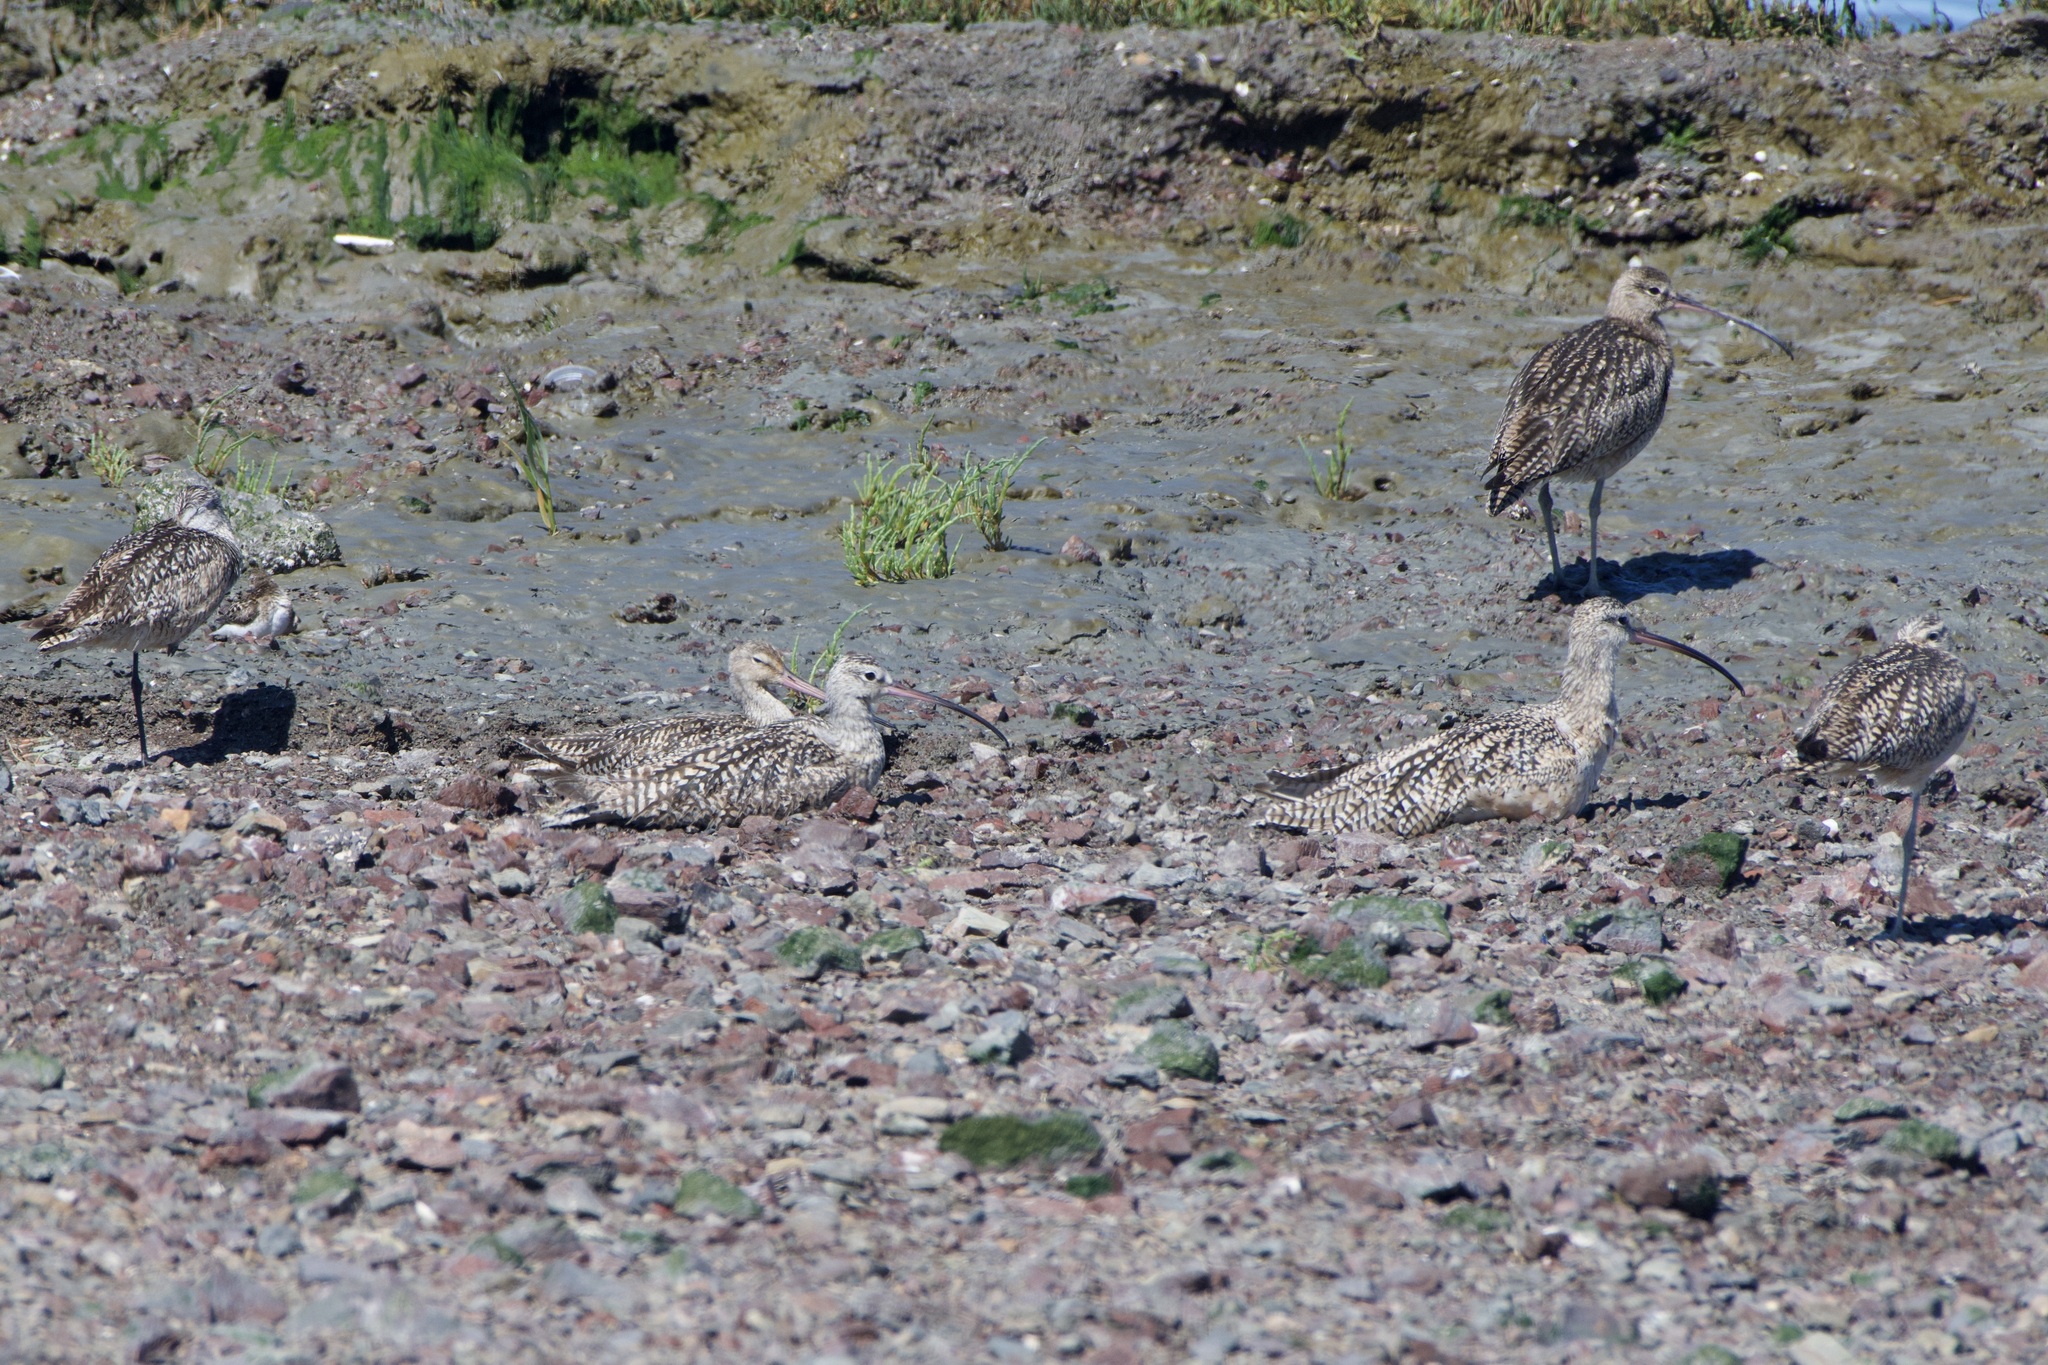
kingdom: Animalia
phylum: Chordata
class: Aves
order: Charadriiformes
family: Scolopacidae
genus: Numenius
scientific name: Numenius americanus
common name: Long-billed curlew
